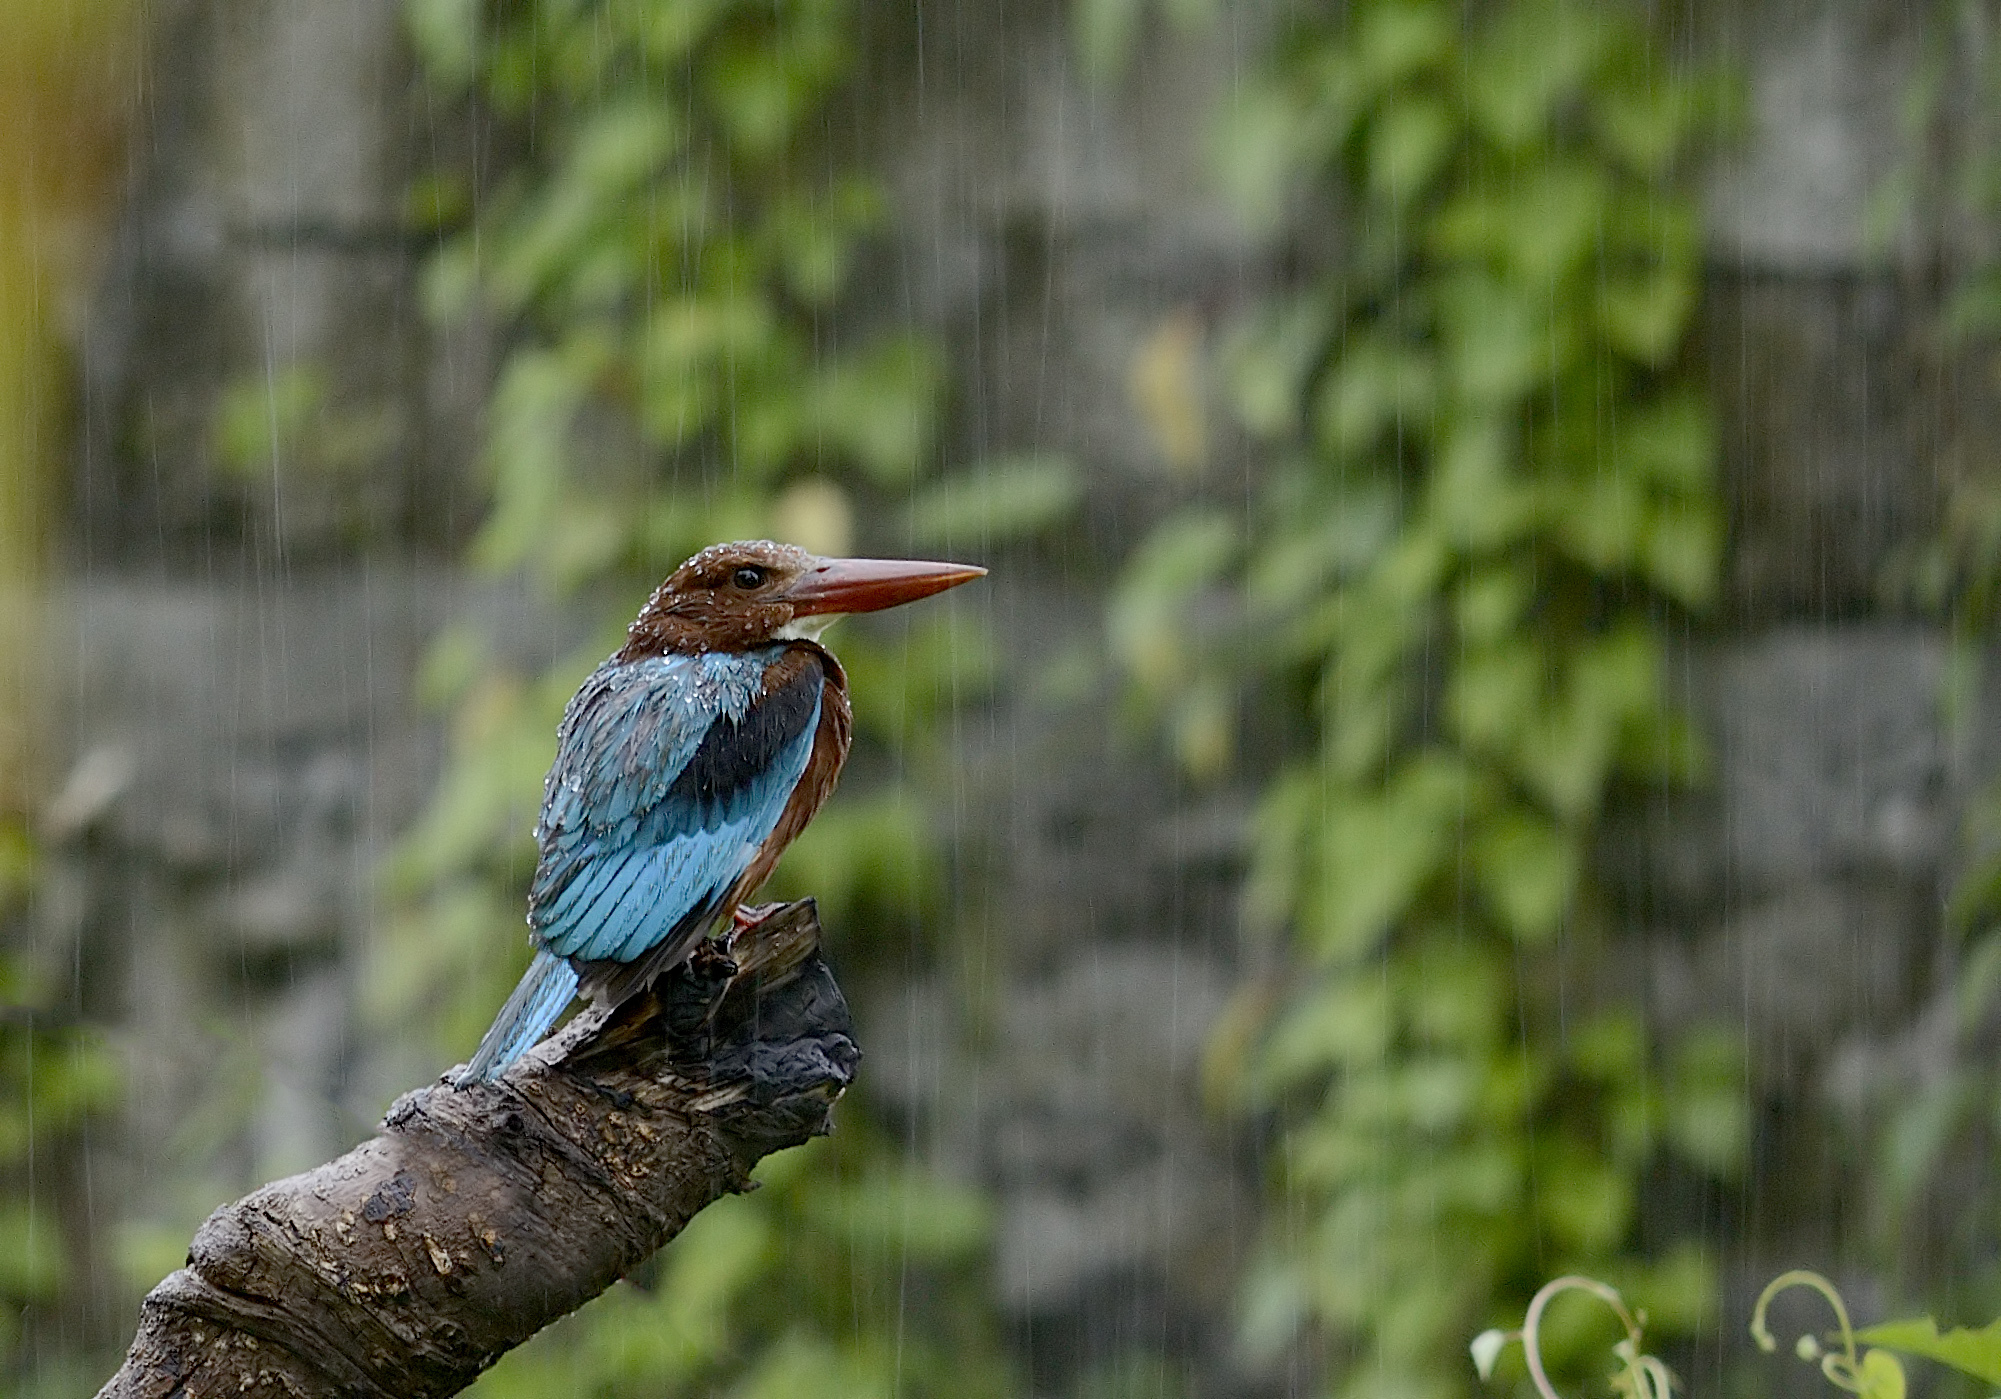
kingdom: Animalia
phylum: Chordata
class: Aves
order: Coraciiformes
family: Alcedinidae
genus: Halcyon
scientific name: Halcyon smyrnensis
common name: White-throated kingfisher
